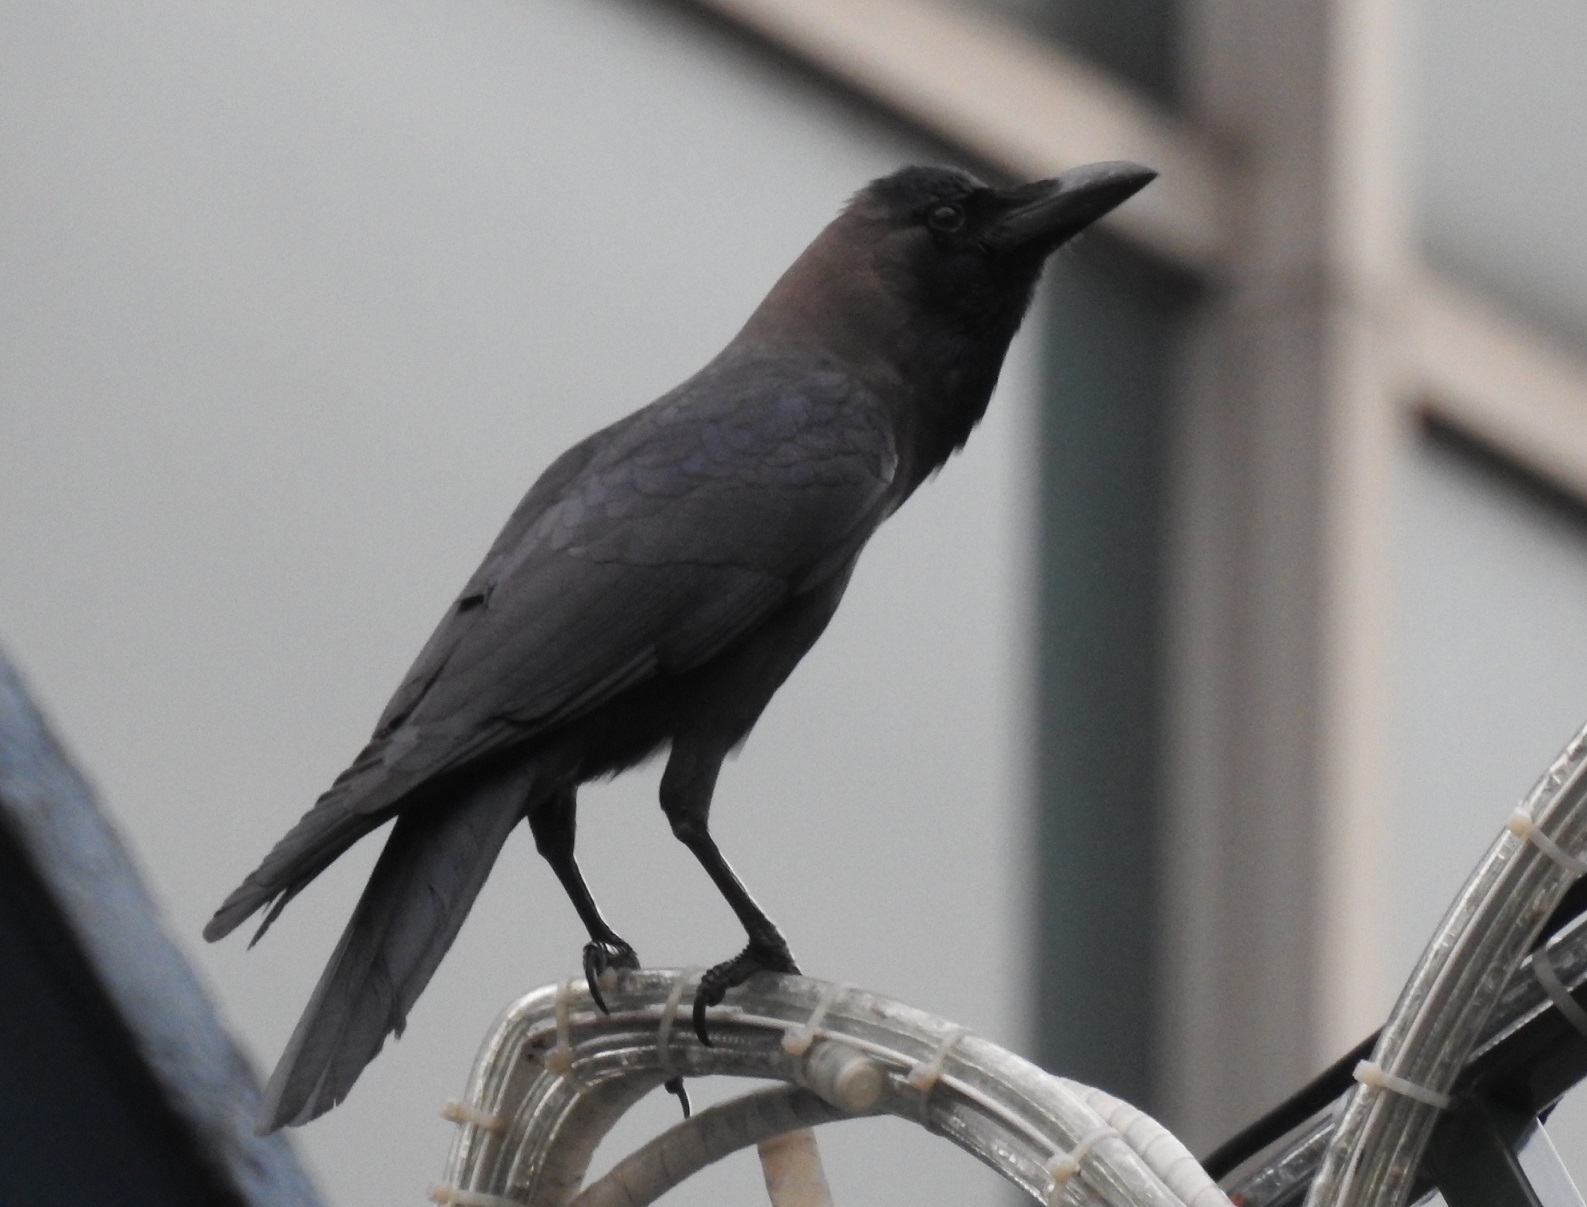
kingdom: Animalia
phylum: Chordata
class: Aves
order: Passeriformes
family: Corvidae
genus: Corvus
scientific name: Corvus splendens
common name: House crow
